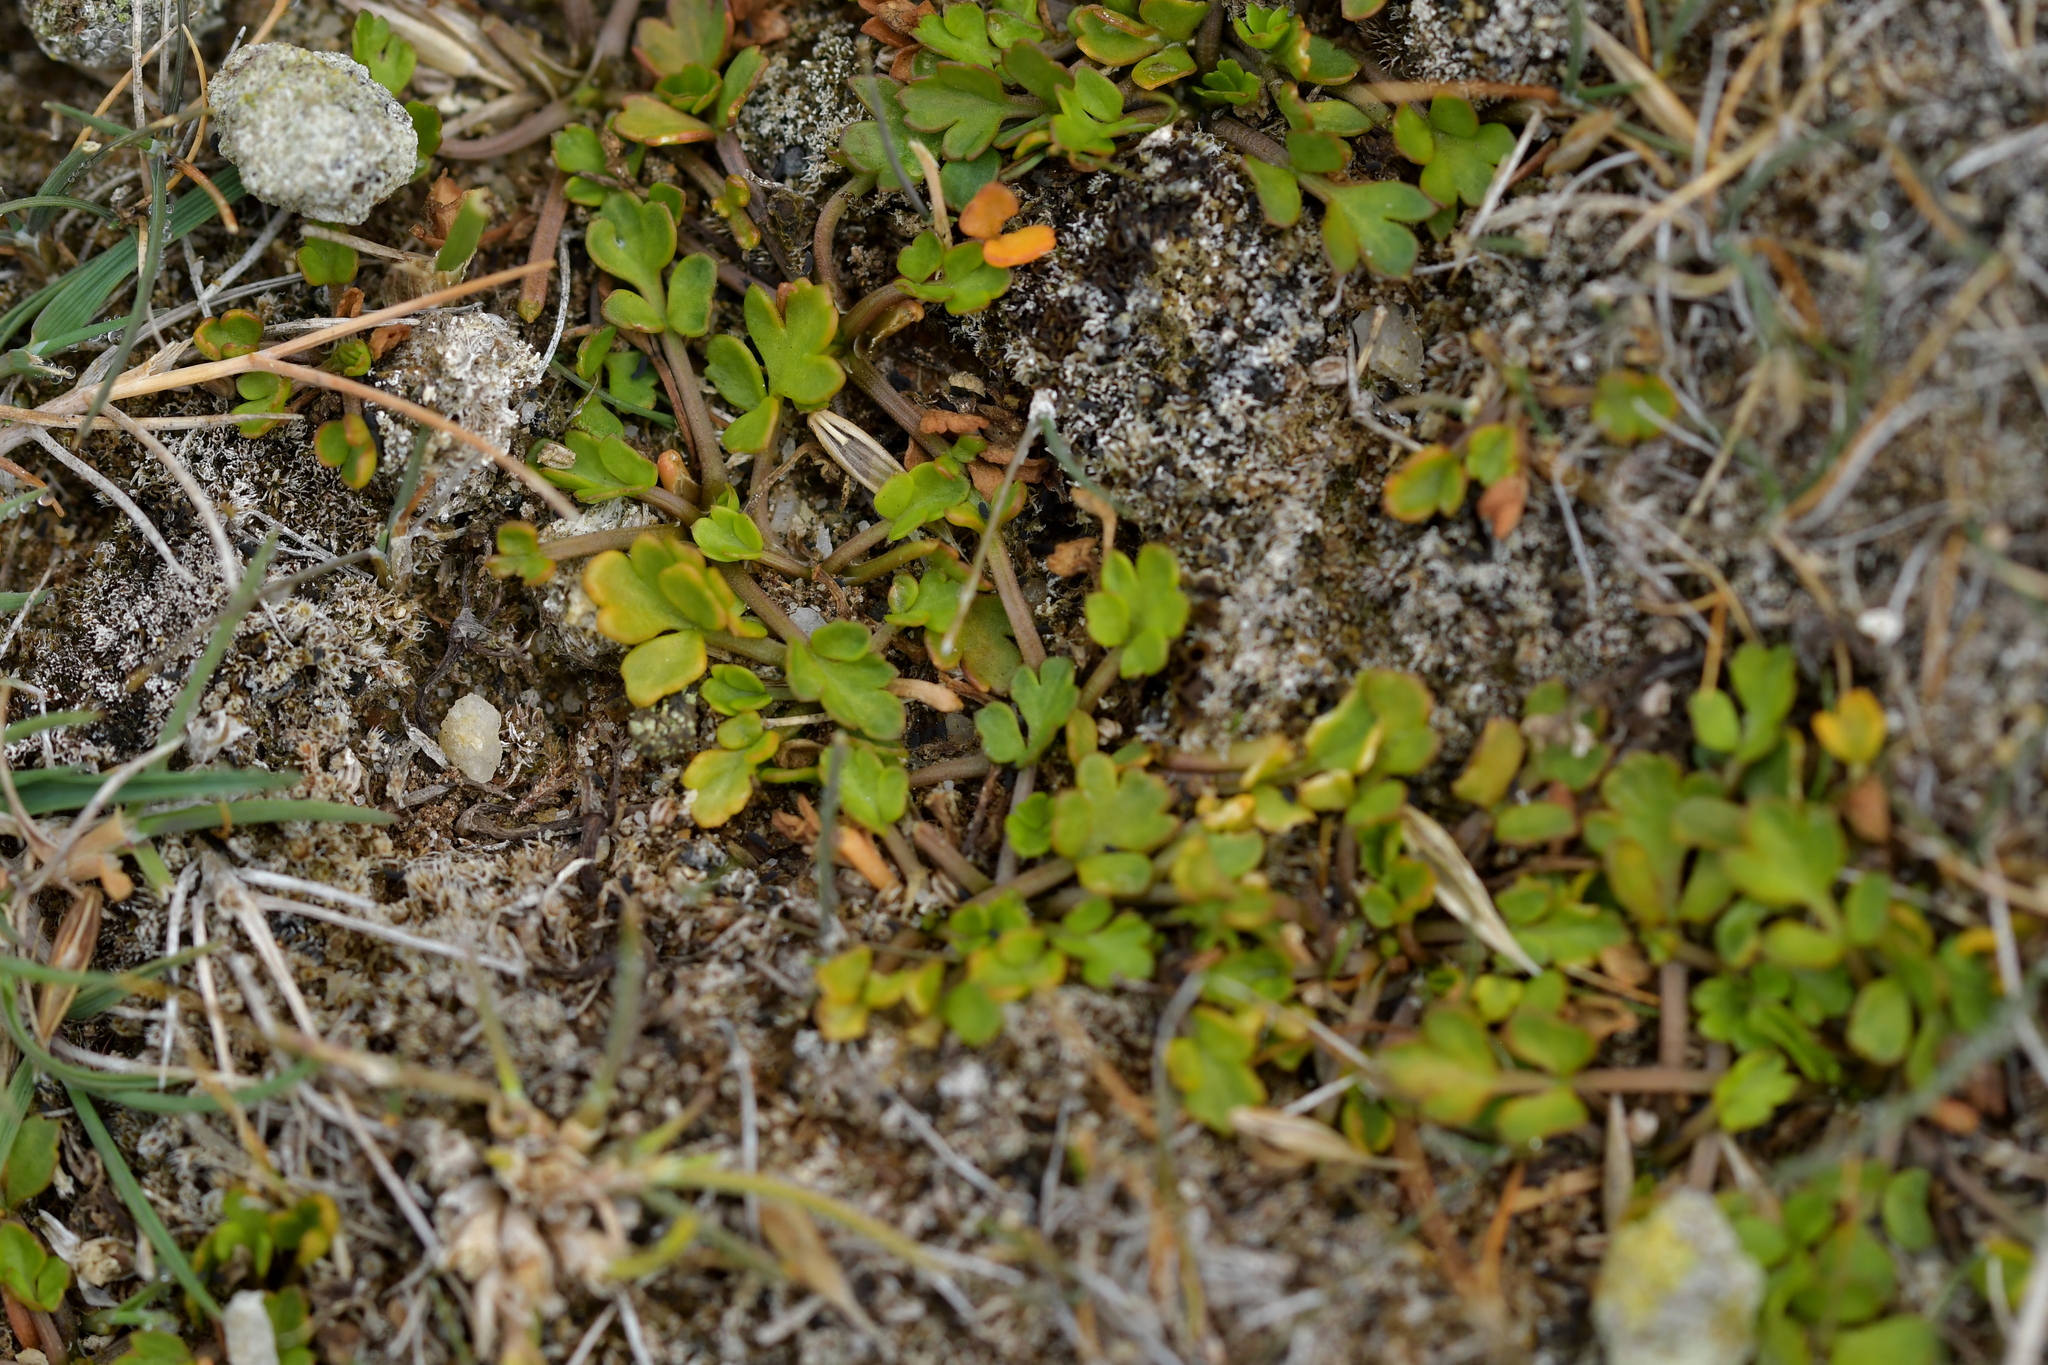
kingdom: Plantae
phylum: Tracheophyta
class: Magnoliopsida
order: Apiales
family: Apiaceae
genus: Apium
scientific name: Apium prostratum
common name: Prostrate marshwort
